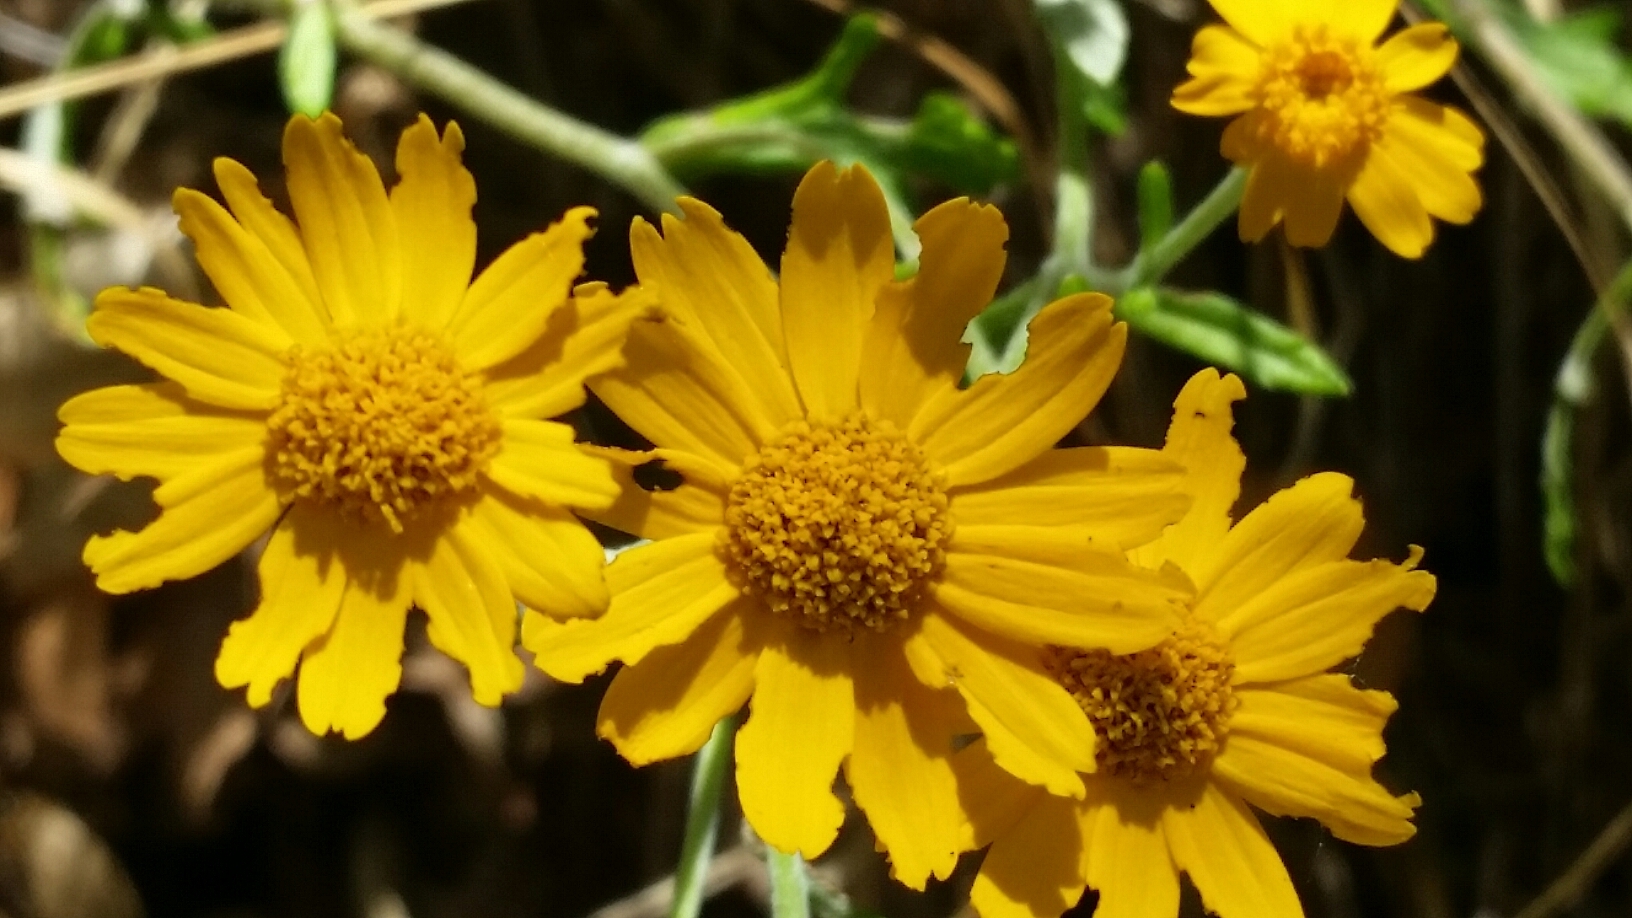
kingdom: Plantae
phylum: Tracheophyta
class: Magnoliopsida
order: Asterales
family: Asteraceae
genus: Eriophyllum
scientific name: Eriophyllum lanatum
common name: Common woolly-sunflower
